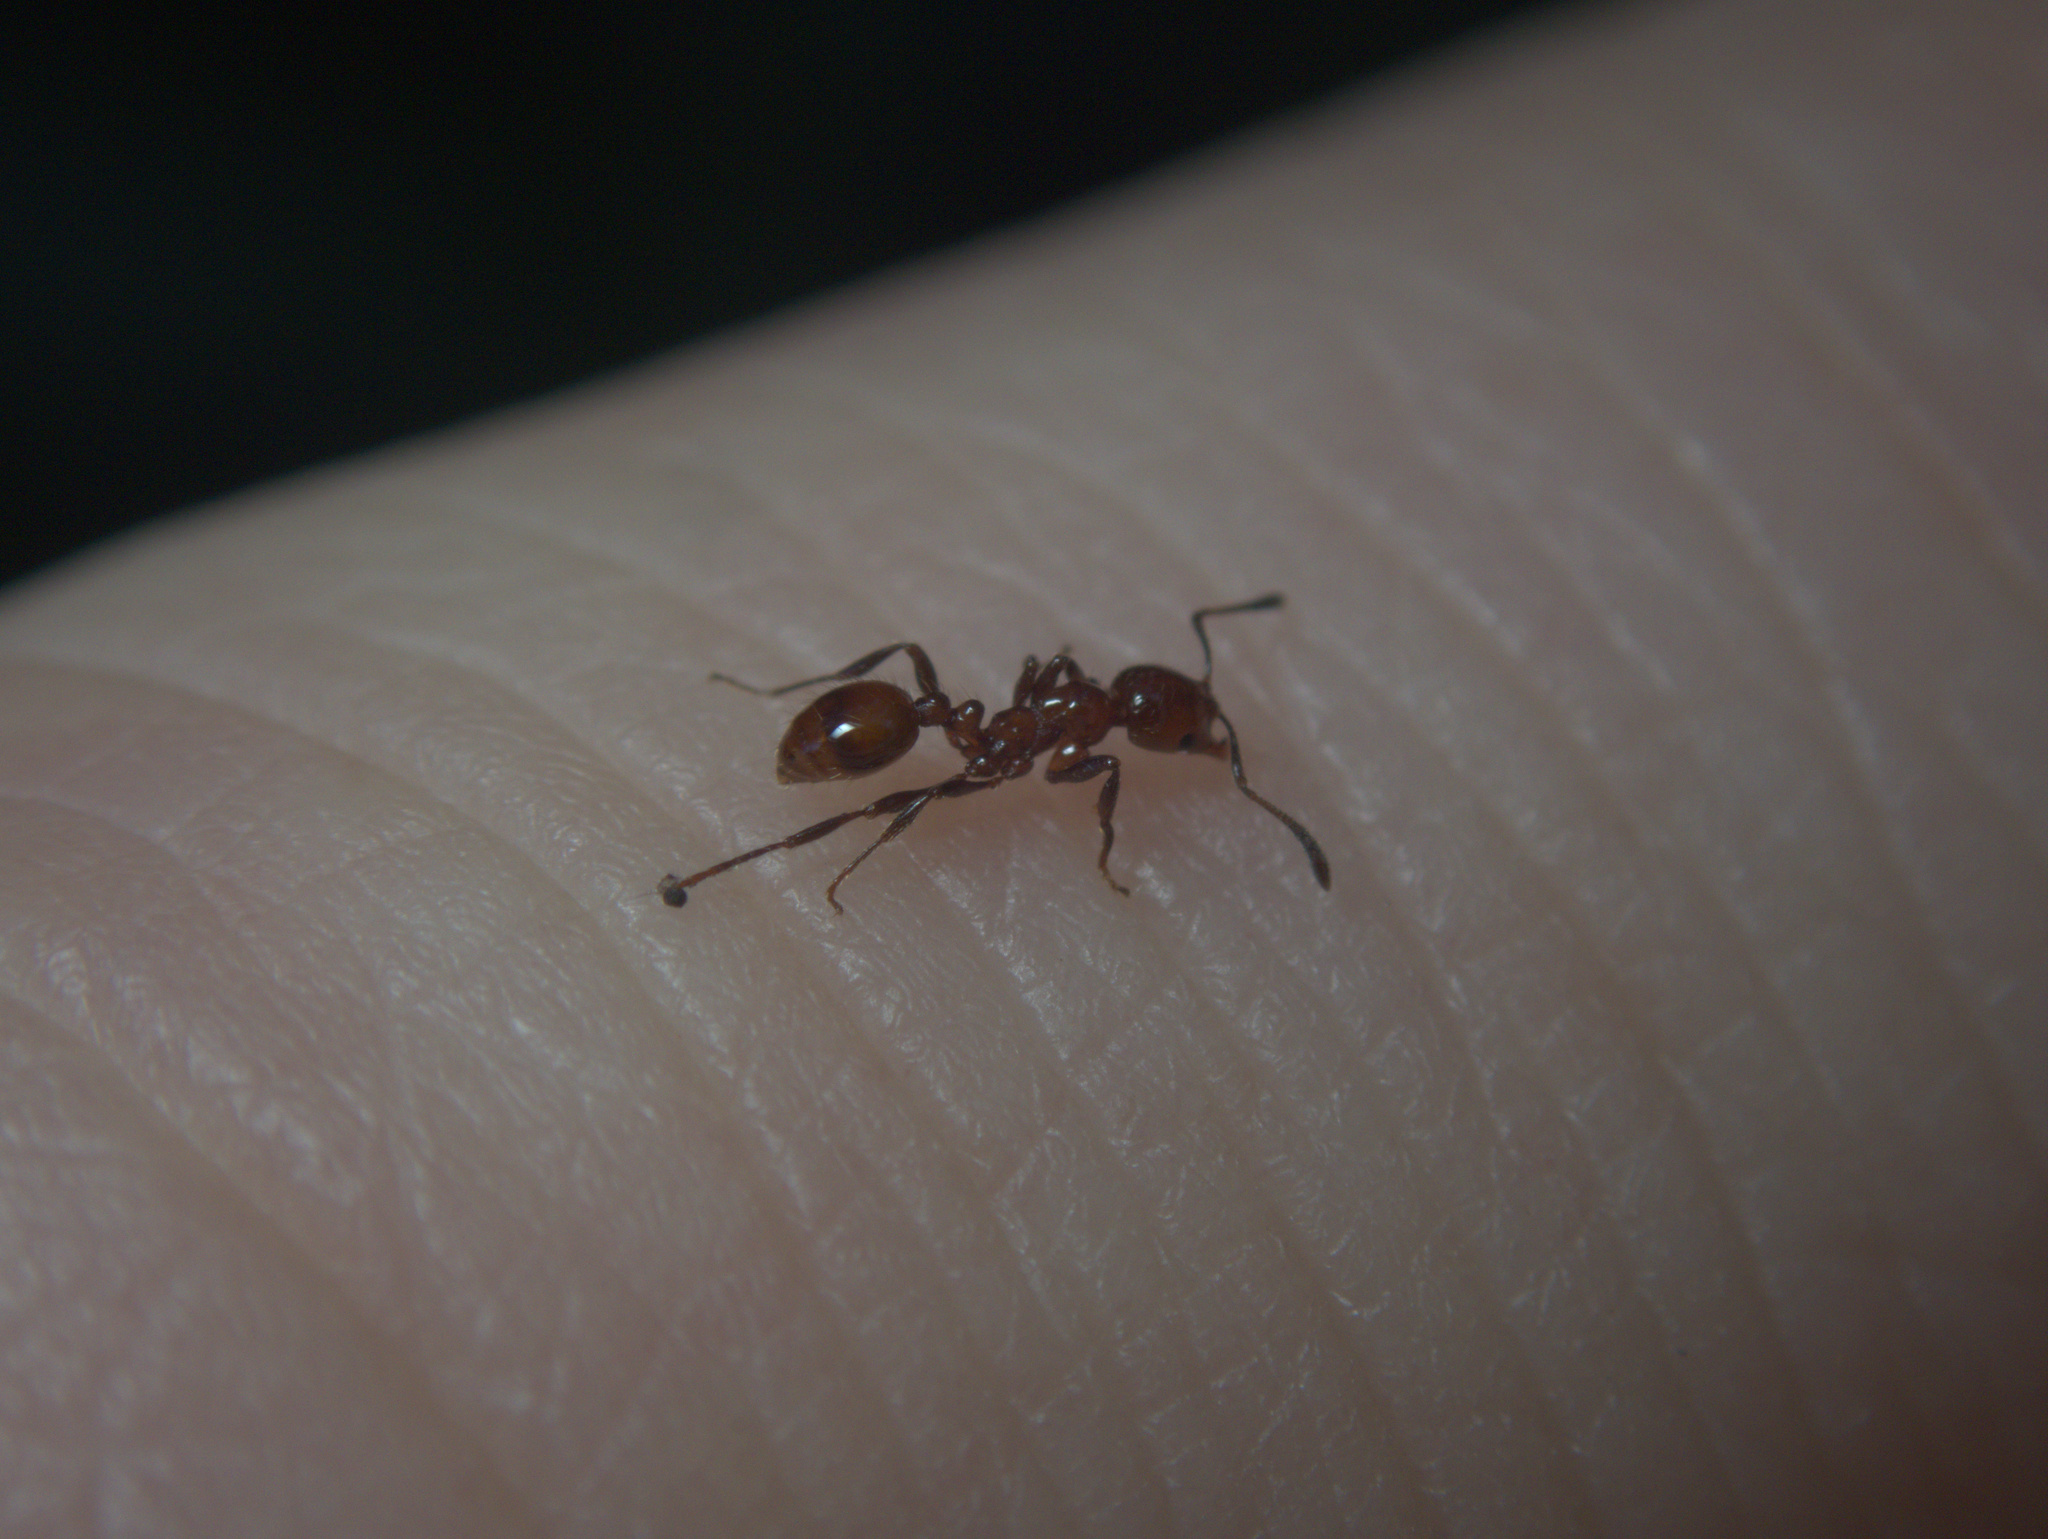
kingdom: Animalia
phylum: Arthropoda
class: Insecta
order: Hymenoptera
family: Formicidae
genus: Monomorium
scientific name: Monomorium antarcticum
